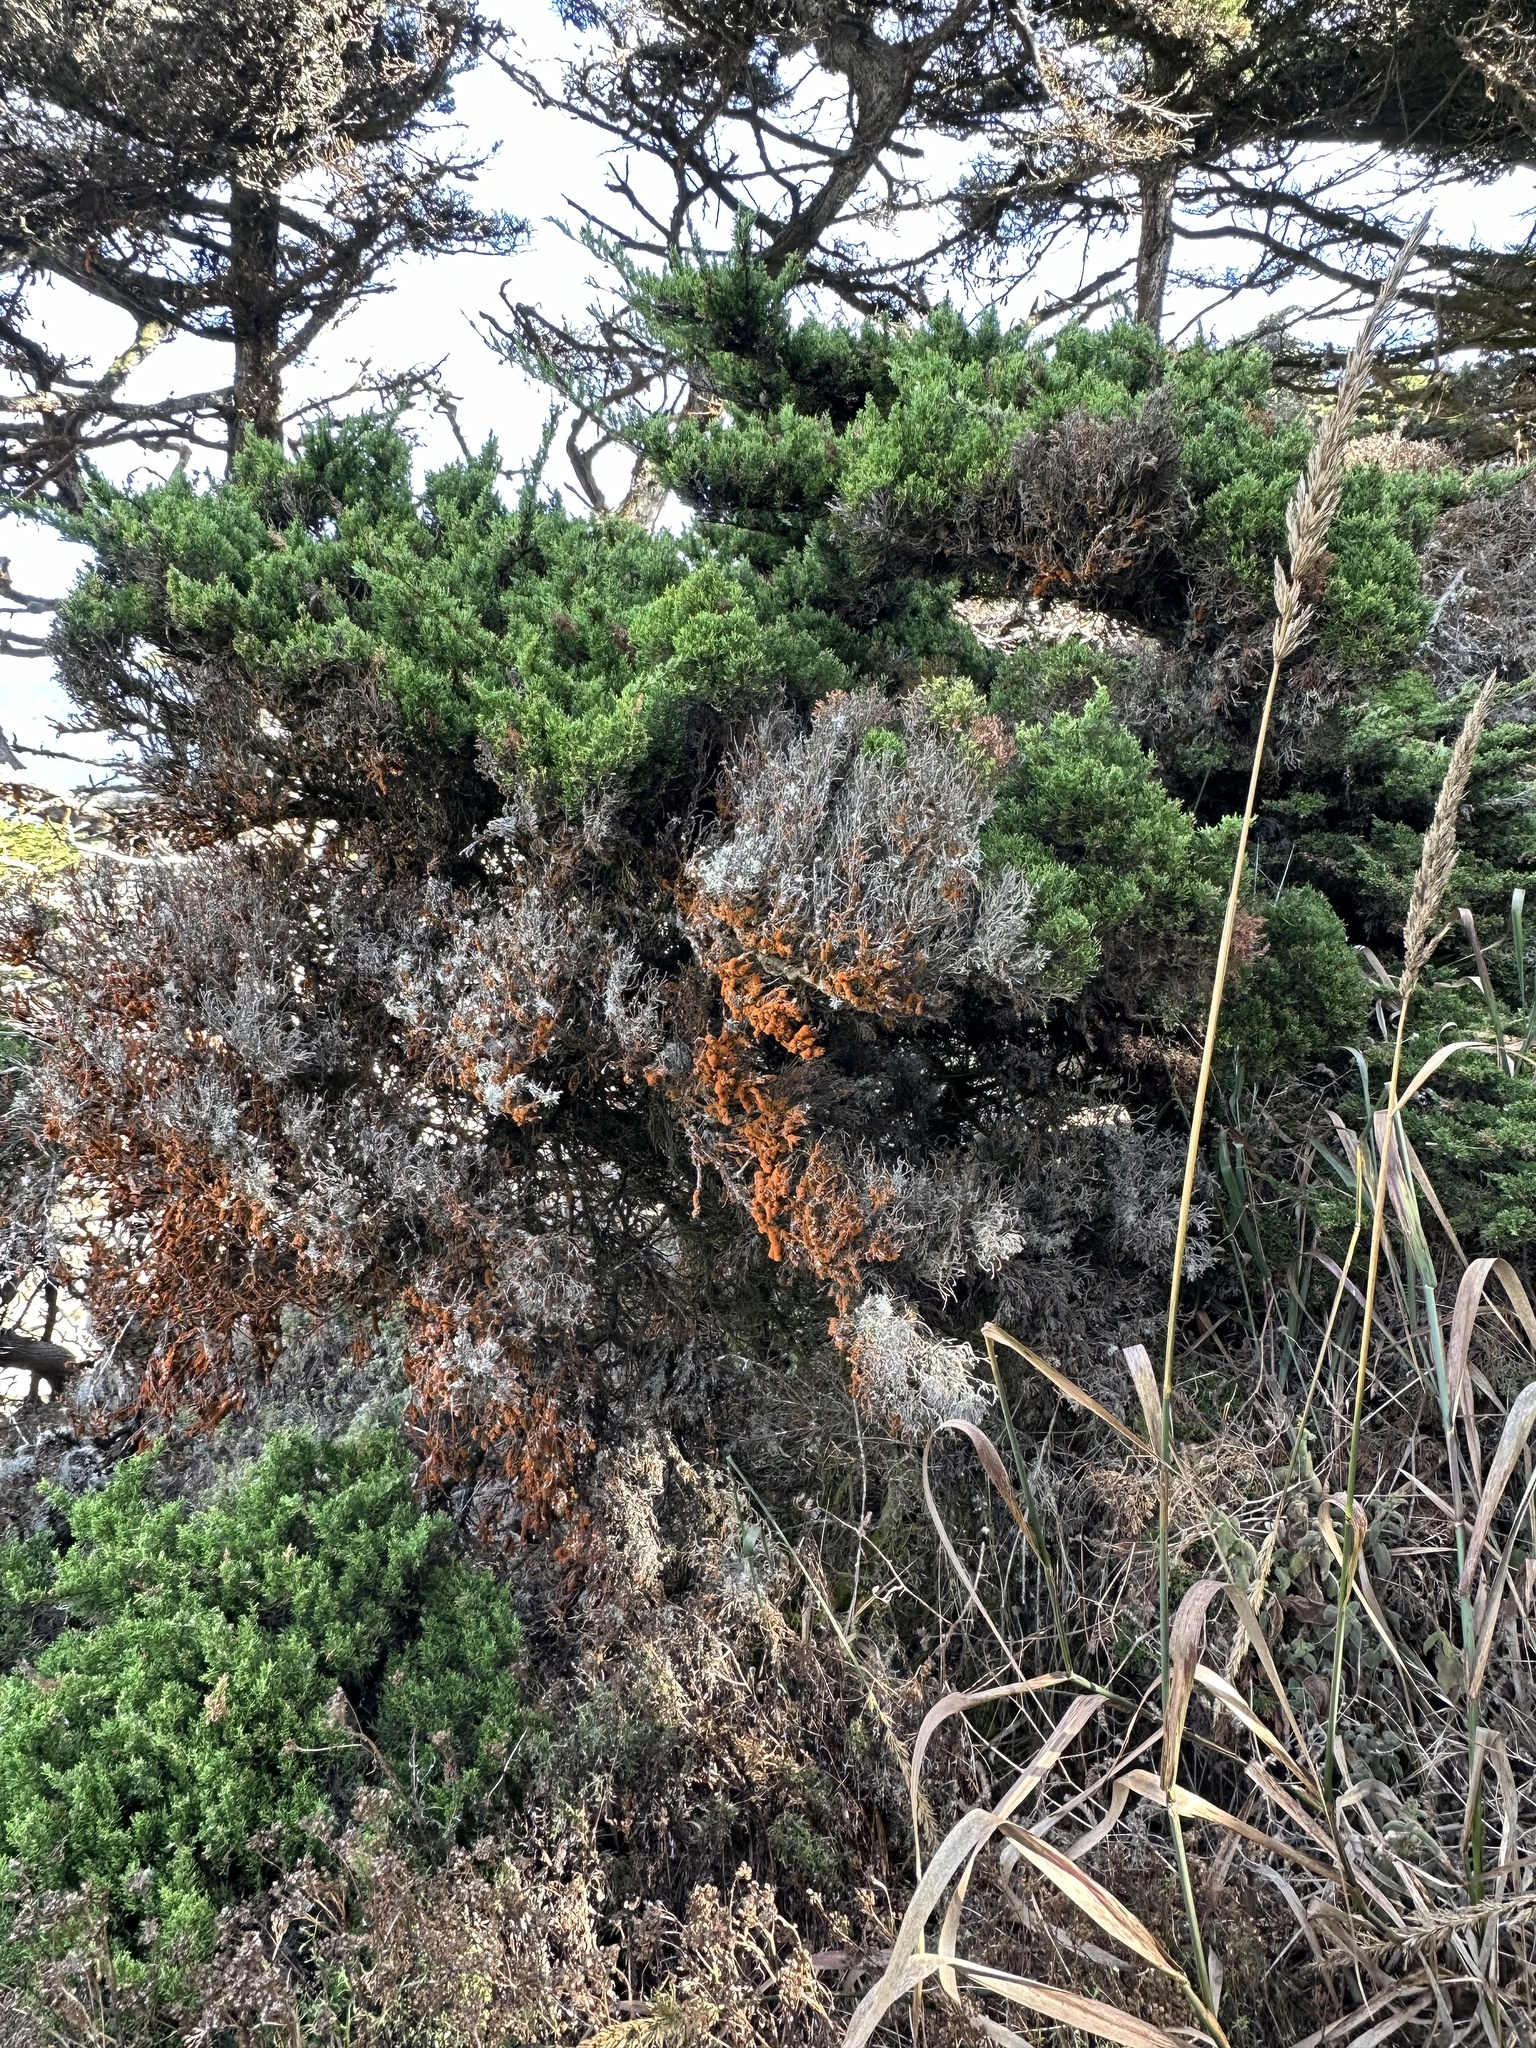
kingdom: Plantae
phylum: Chlorophyta
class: Ulvophyceae
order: Trentepohliales
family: Trentepohliaceae
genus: Trentepohlia
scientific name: Trentepohlia aurea
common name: Orange rock hair
